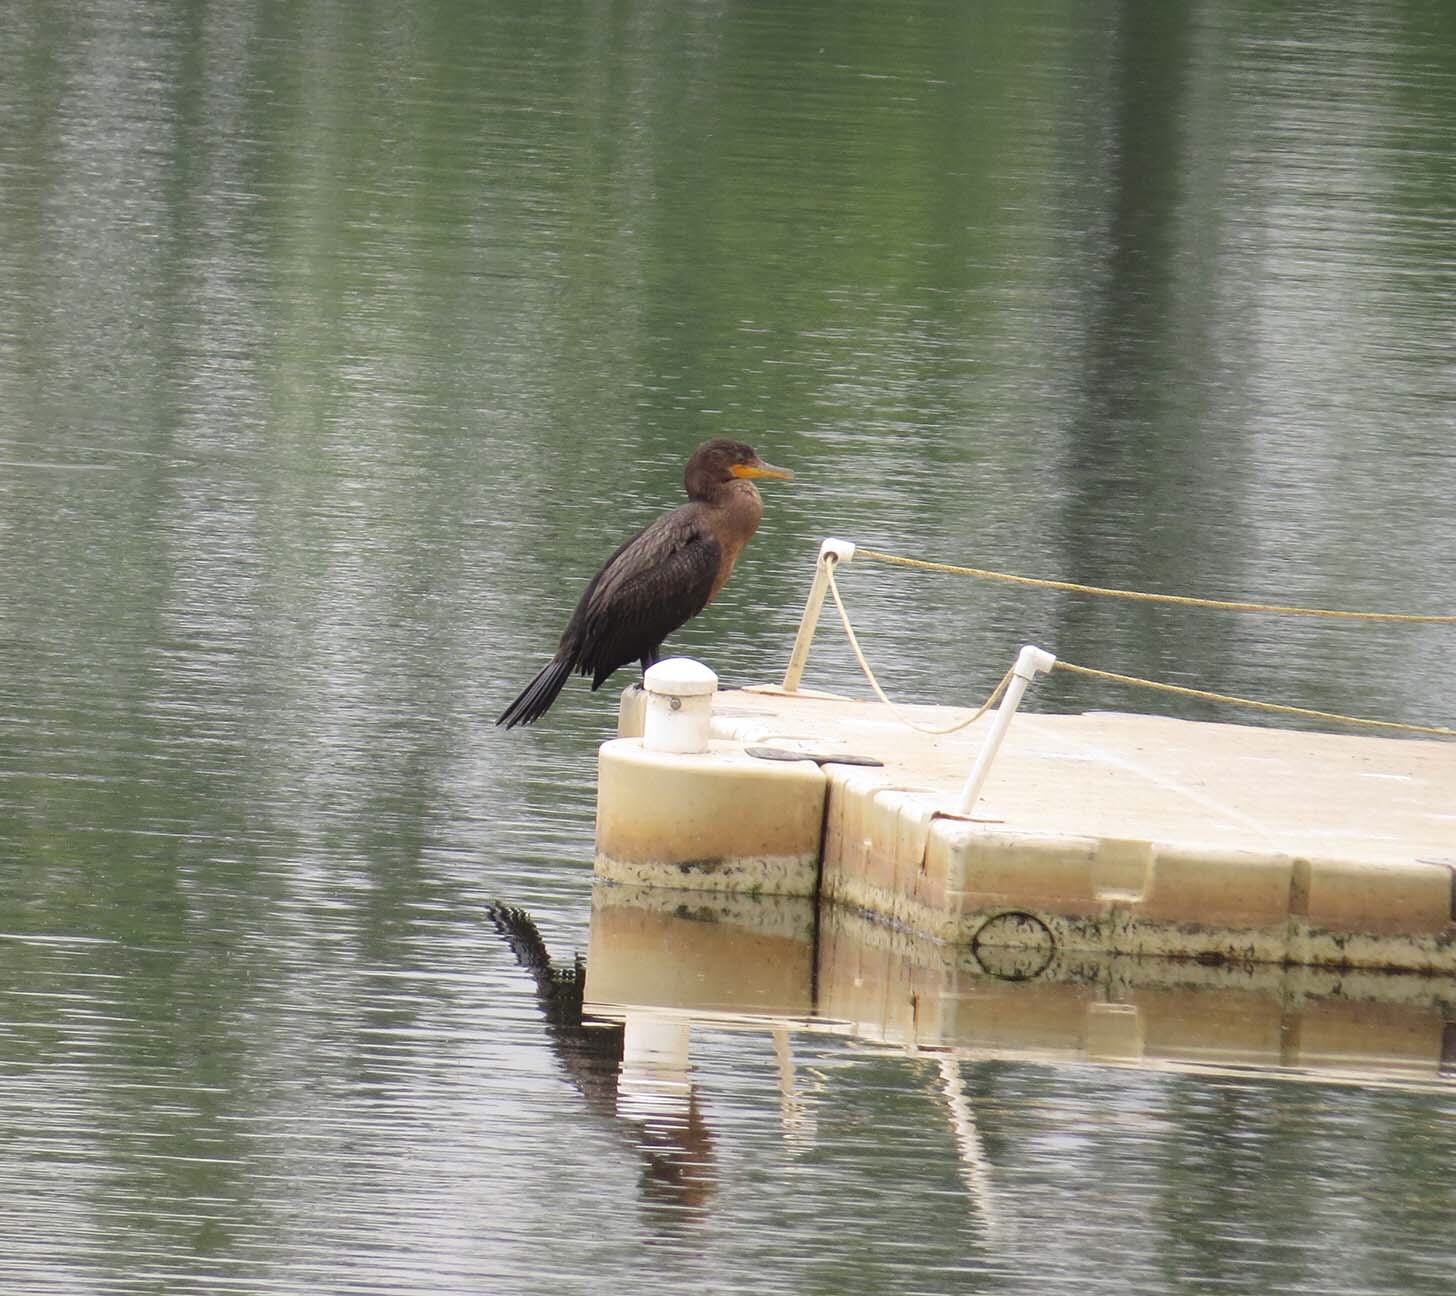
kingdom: Animalia
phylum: Chordata
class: Aves
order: Suliformes
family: Phalacrocoracidae
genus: Phalacrocorax
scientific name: Phalacrocorax auritus
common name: Double-crested cormorant
